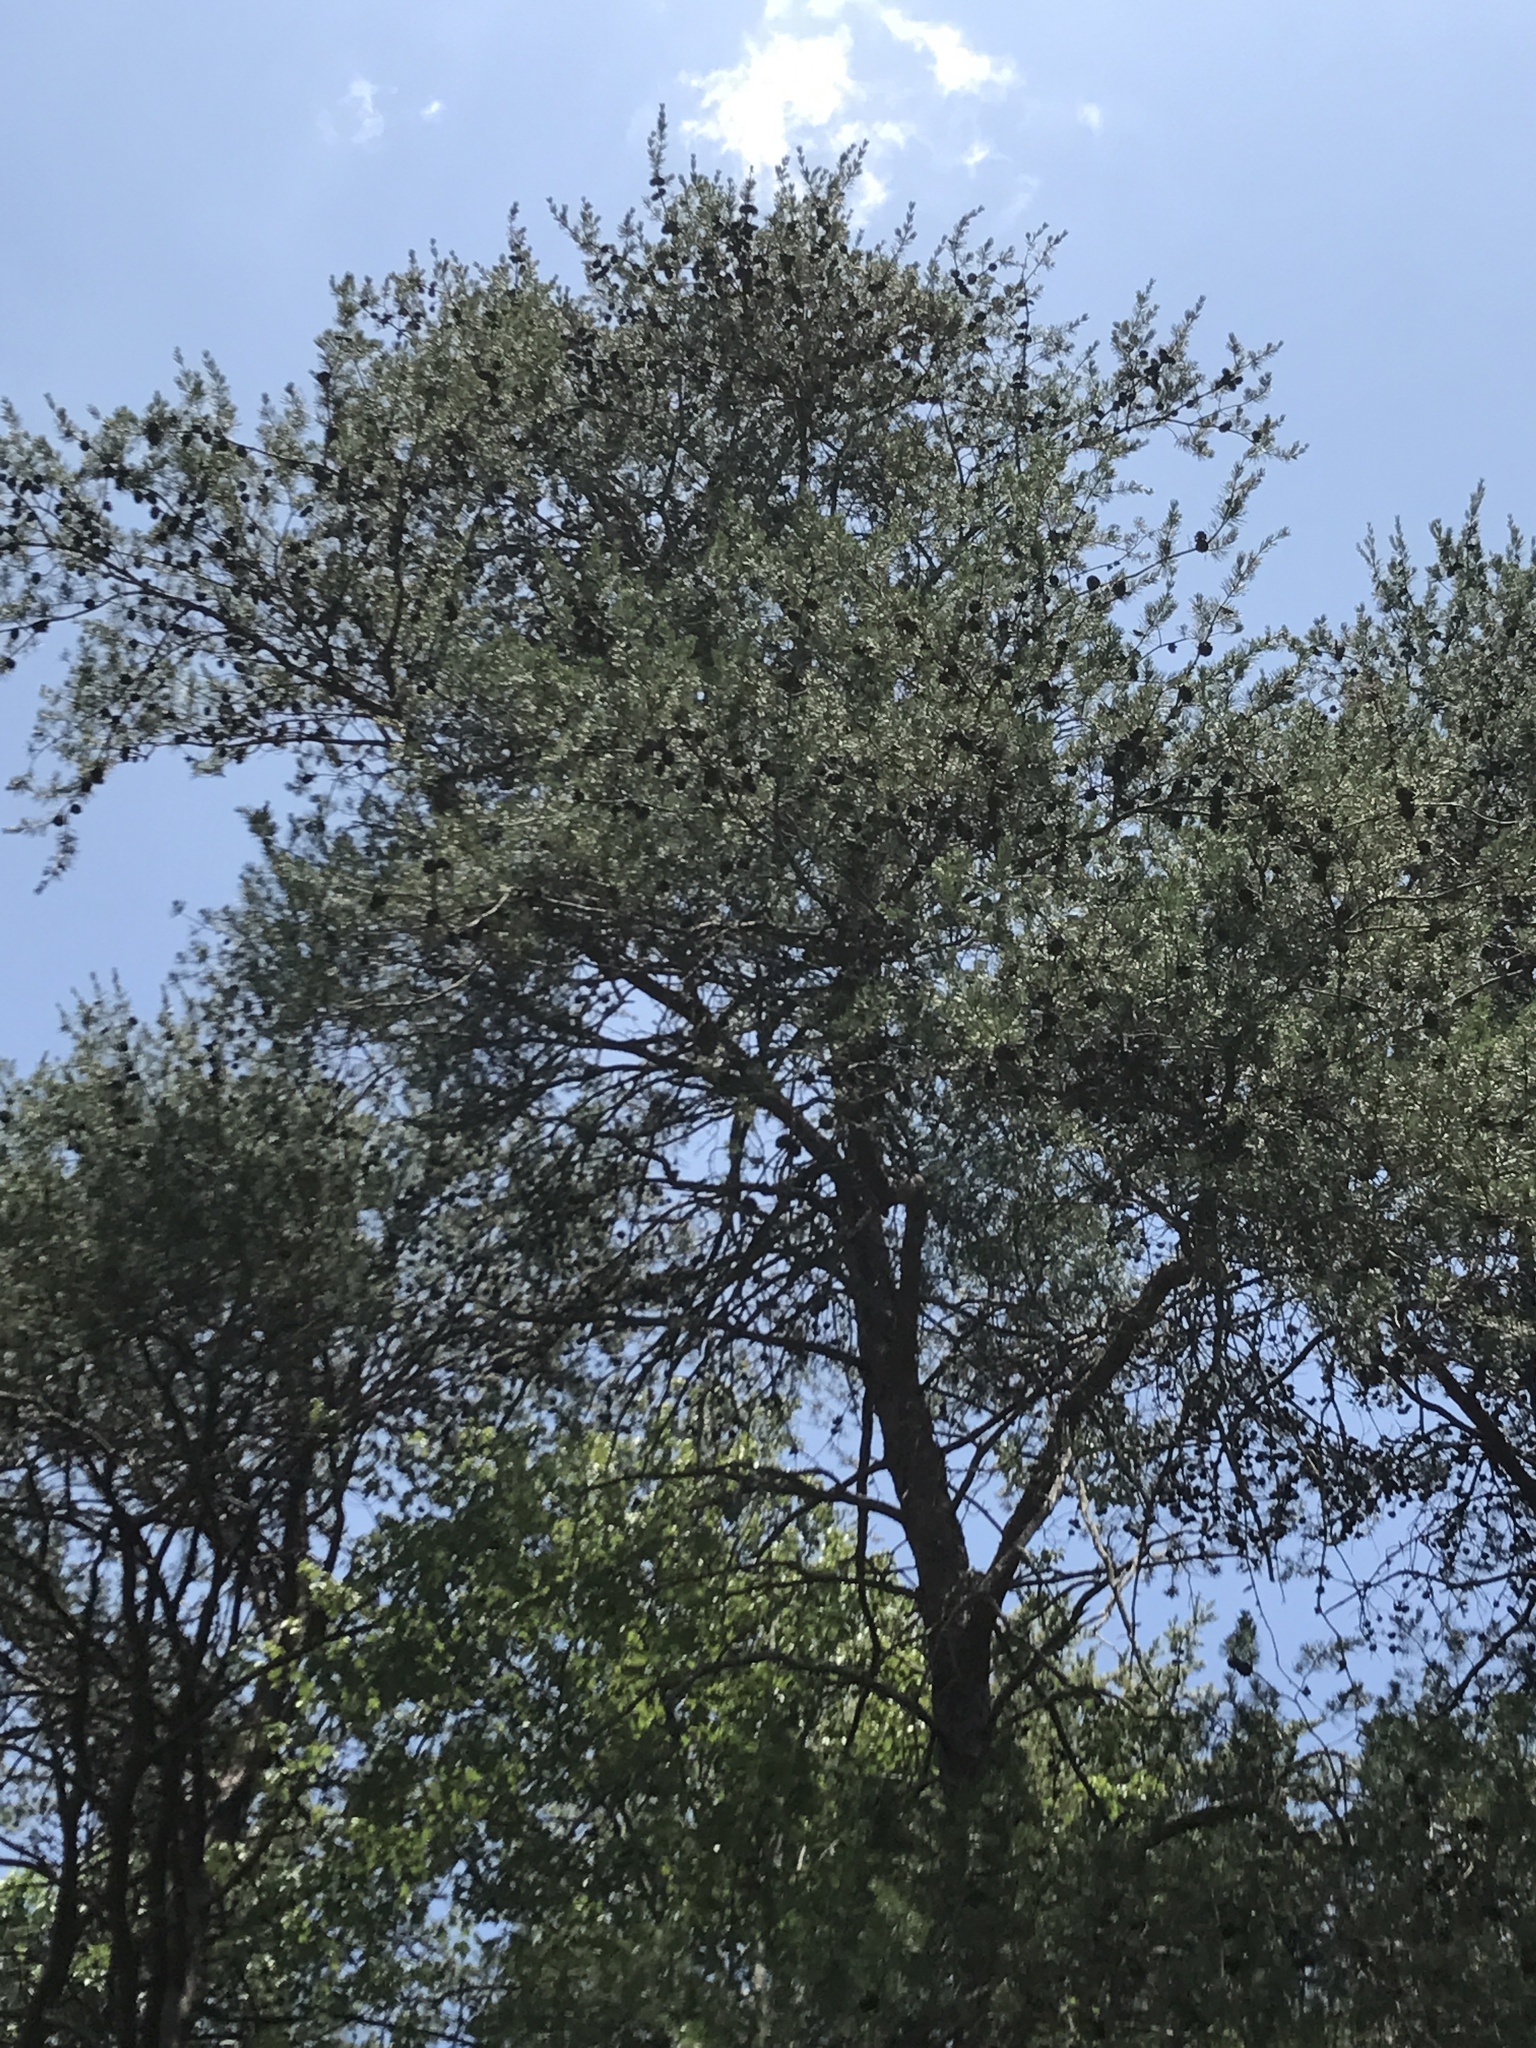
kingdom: Plantae
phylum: Tracheophyta
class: Pinopsida
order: Pinales
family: Pinaceae
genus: Pinus
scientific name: Pinus virginiana
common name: Scrub pine
